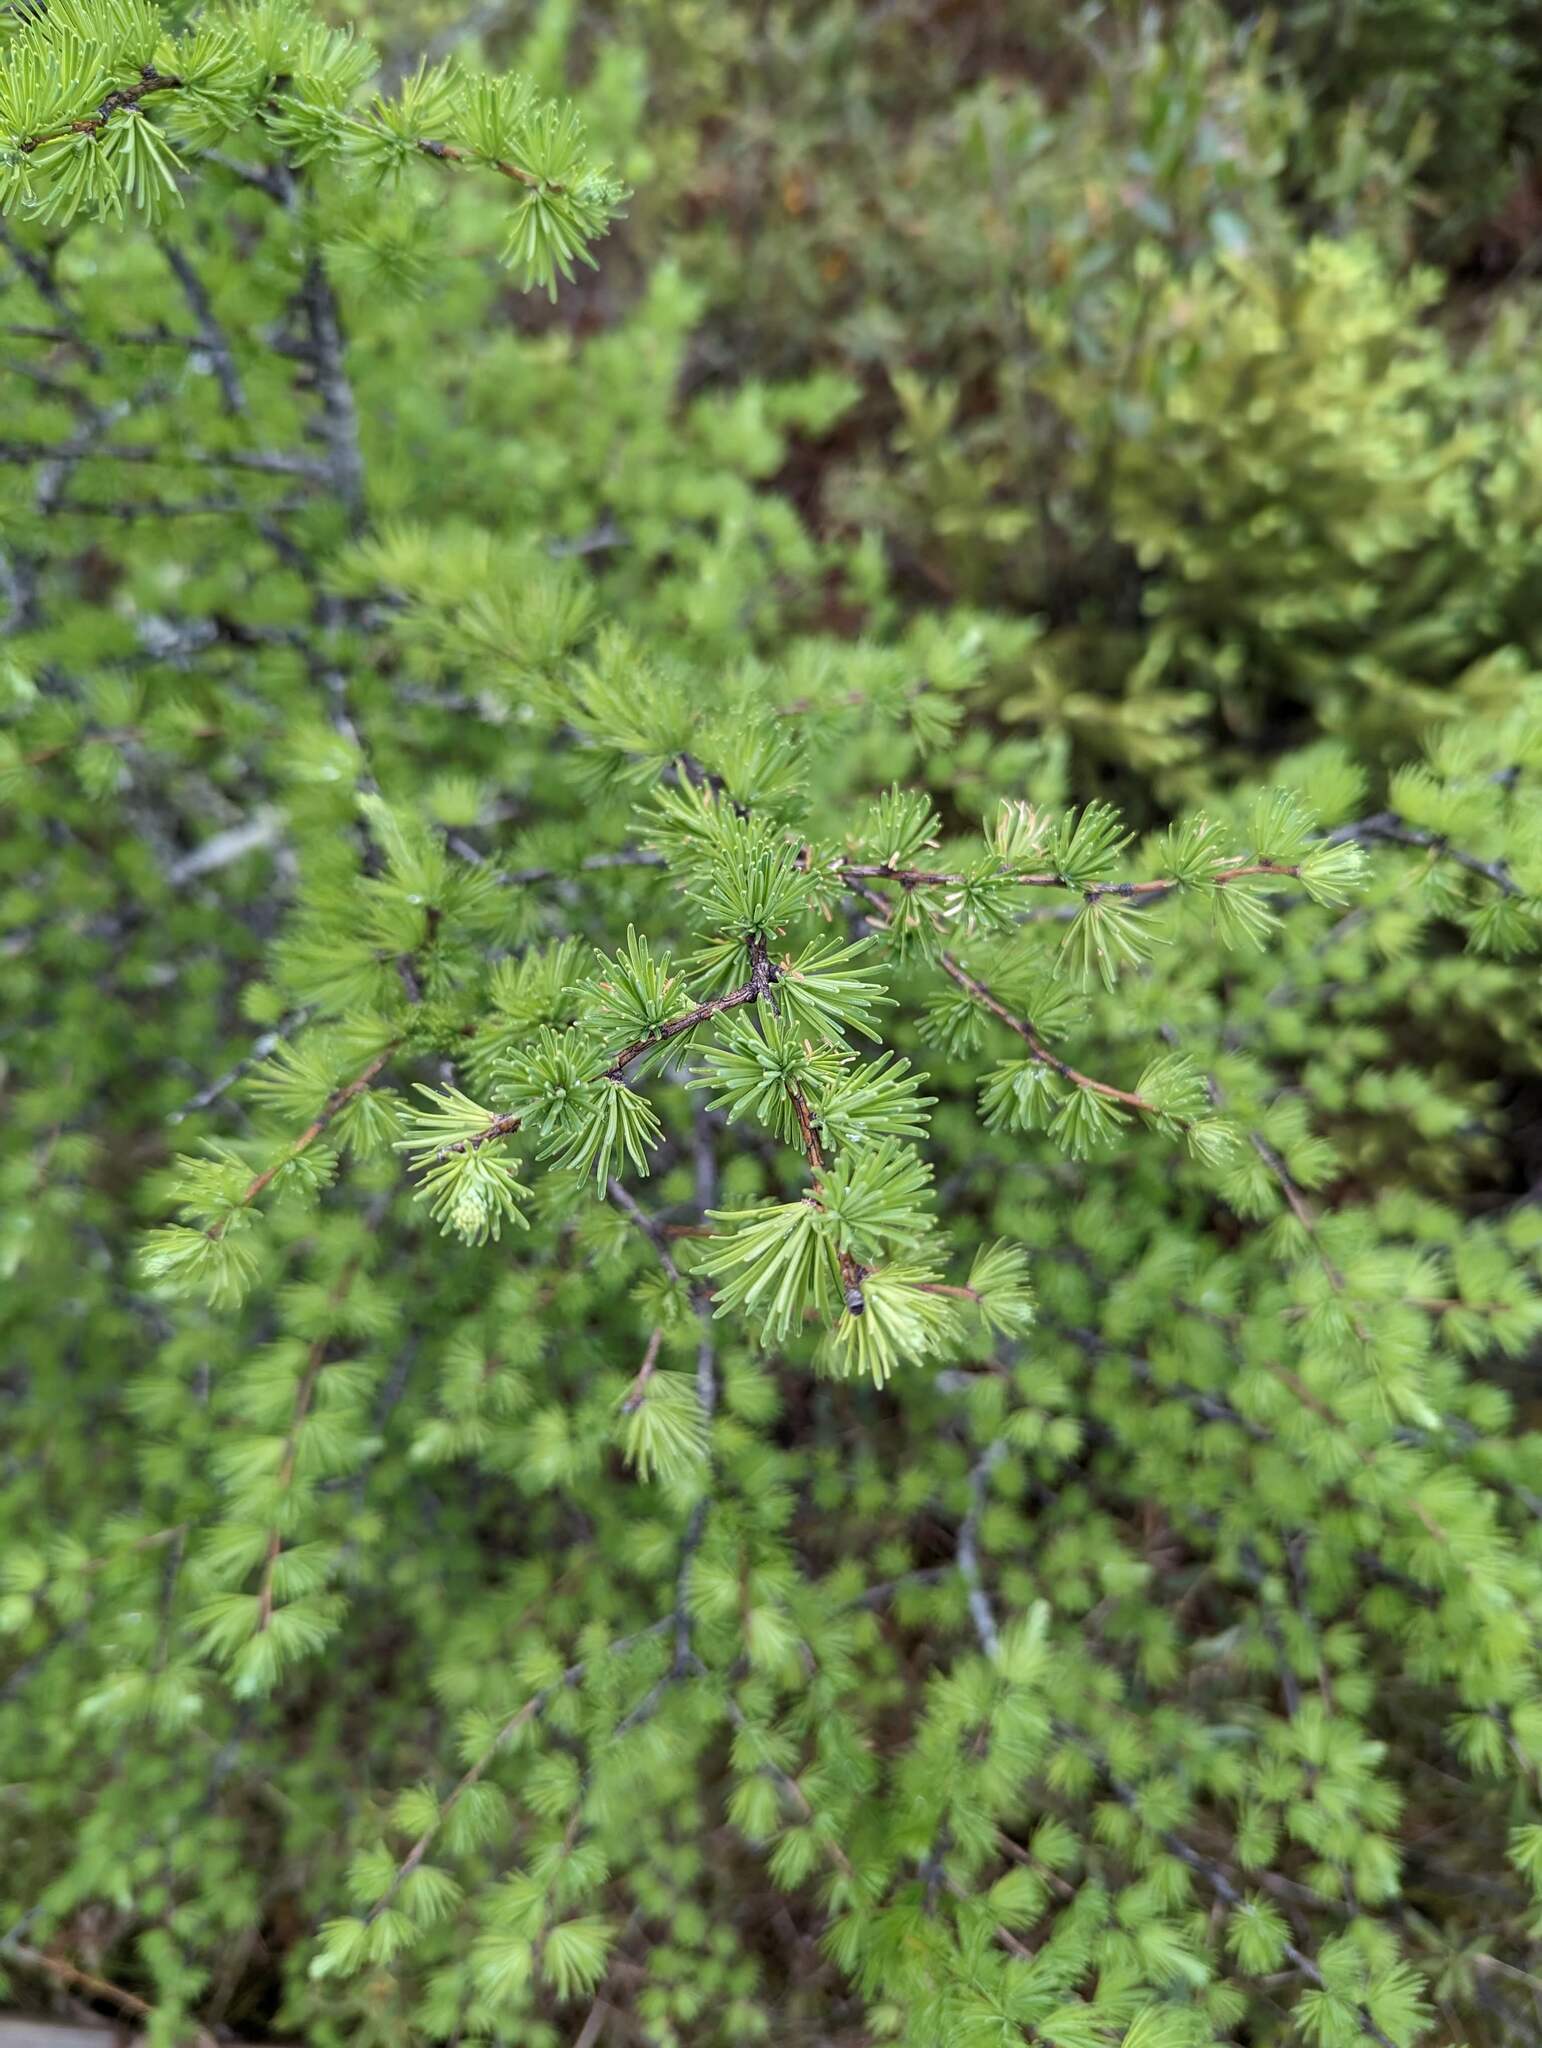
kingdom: Plantae
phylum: Tracheophyta
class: Pinopsida
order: Pinales
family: Pinaceae
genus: Larix
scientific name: Larix laricina
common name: American larch
